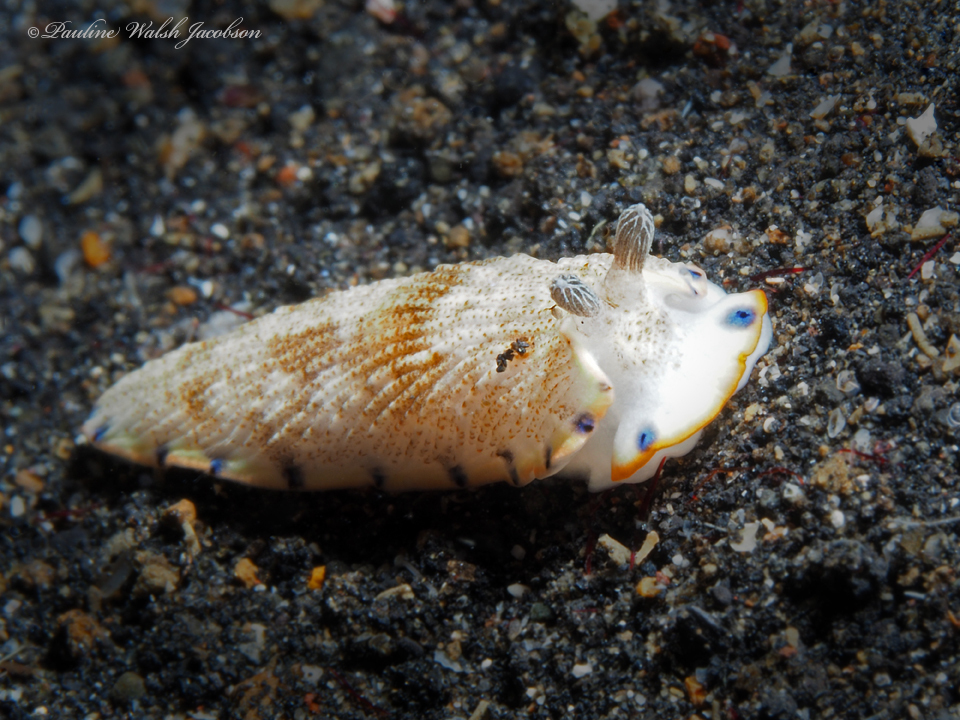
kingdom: Animalia
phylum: Mollusca
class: Gastropoda
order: Nudibranchia
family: Arminidae
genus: Dermatobranchus
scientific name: Dermatobranchus caeruleomaculatus
